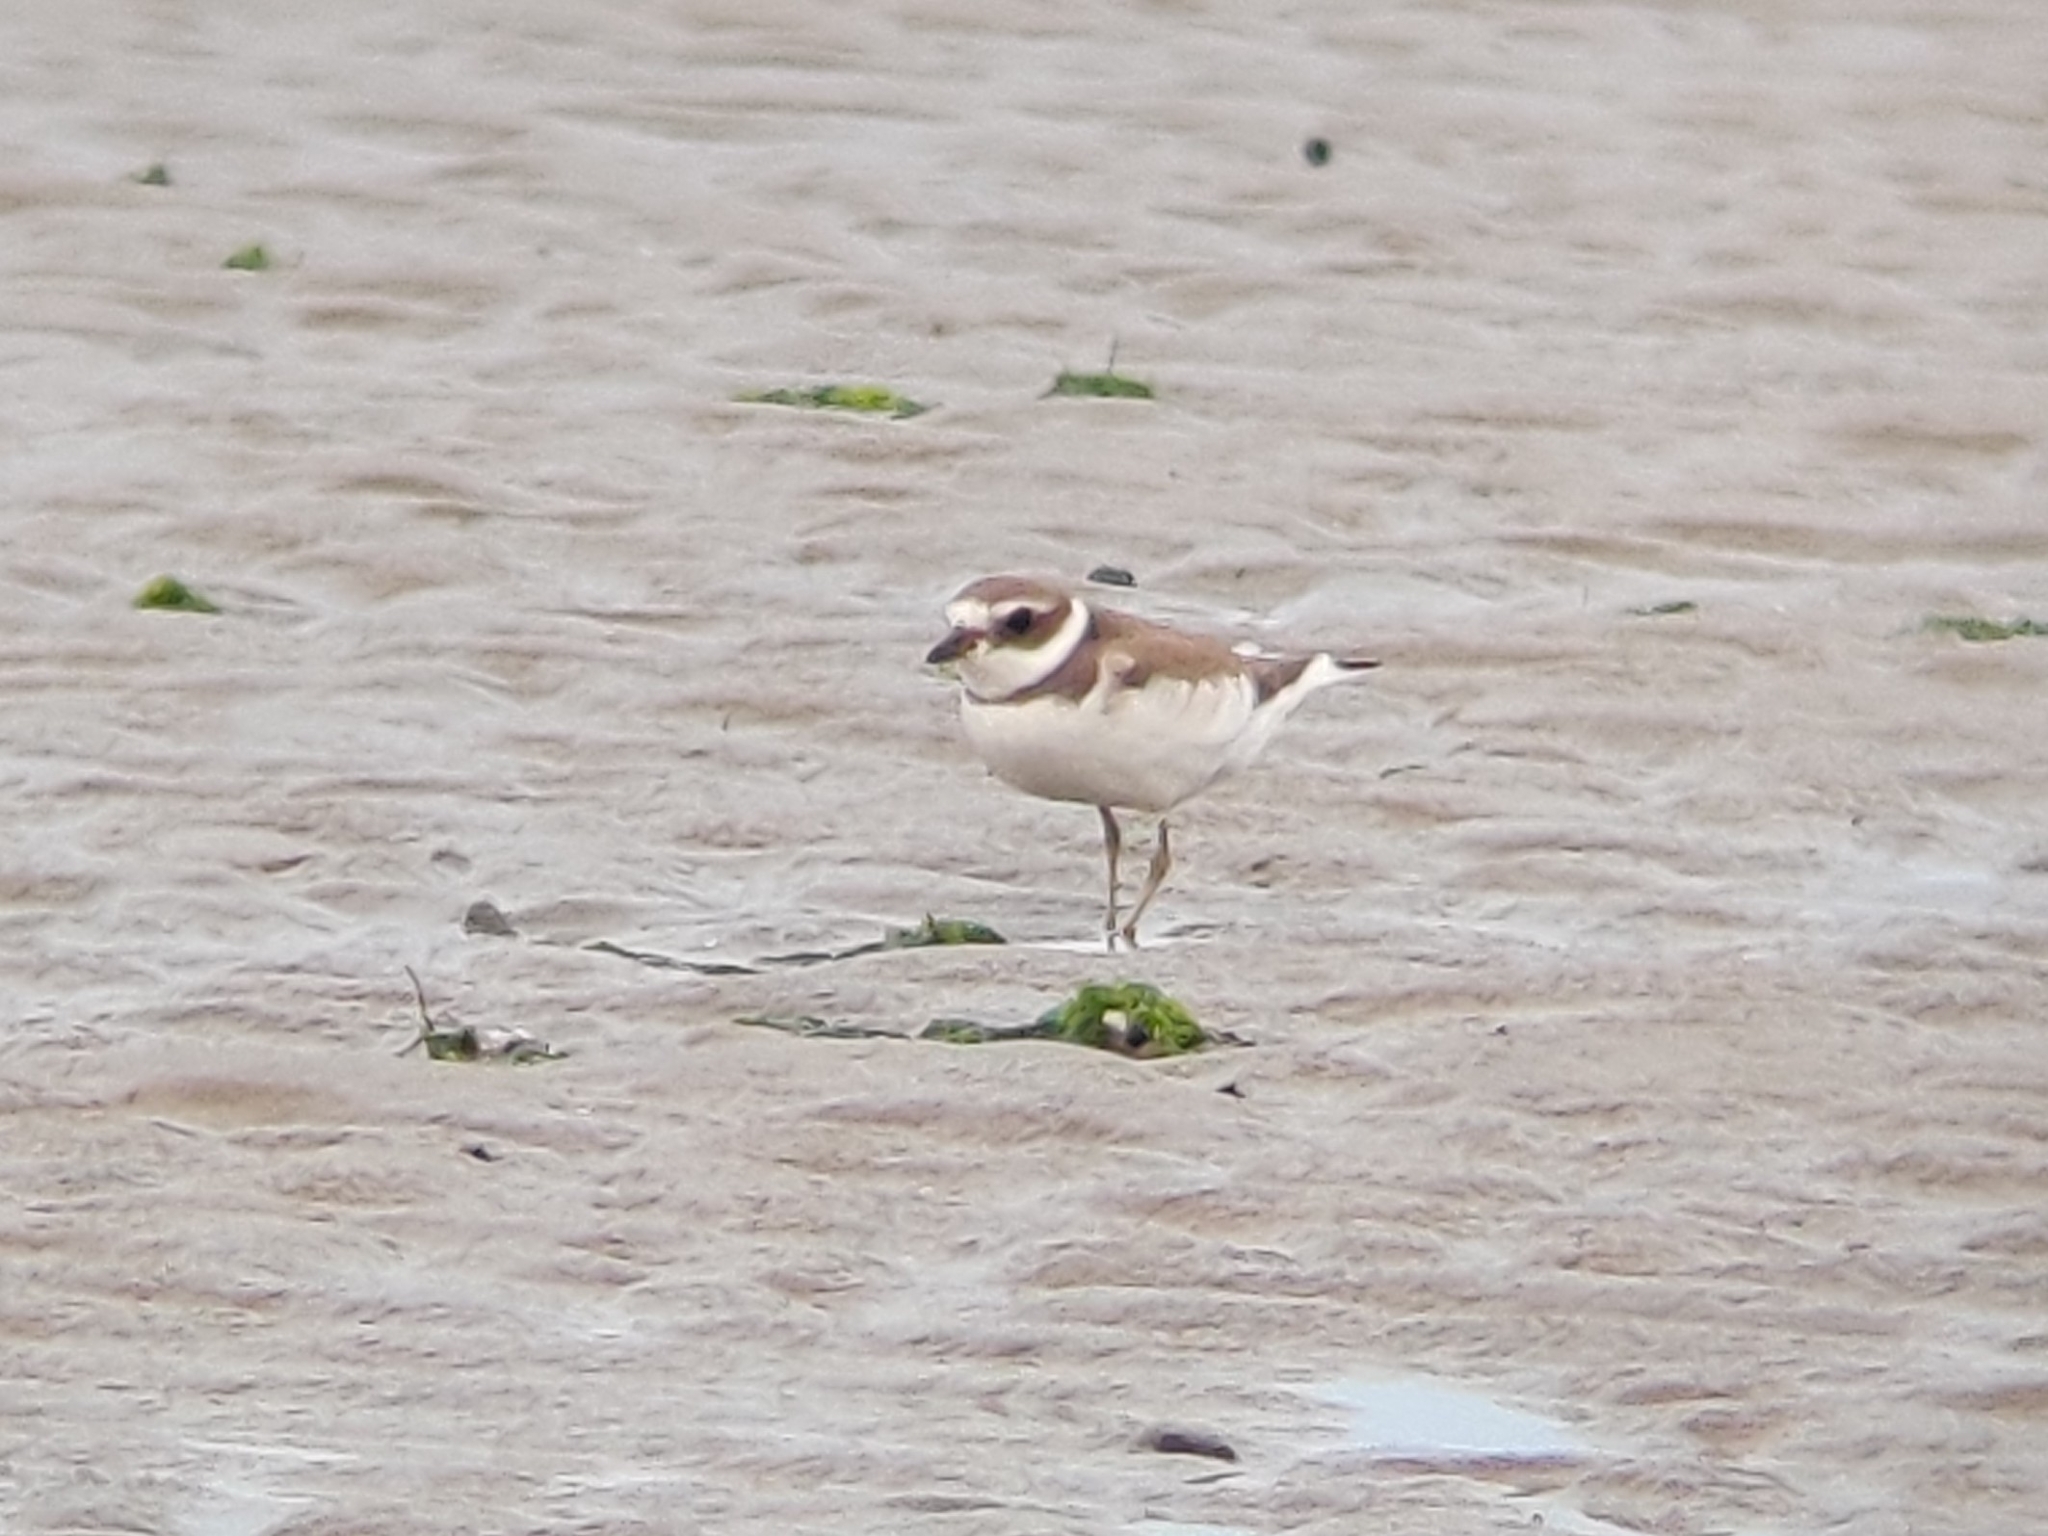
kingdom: Animalia
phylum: Chordata
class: Aves
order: Charadriiformes
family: Charadriidae
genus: Charadrius
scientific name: Charadrius semipalmatus
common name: Semipalmated plover
